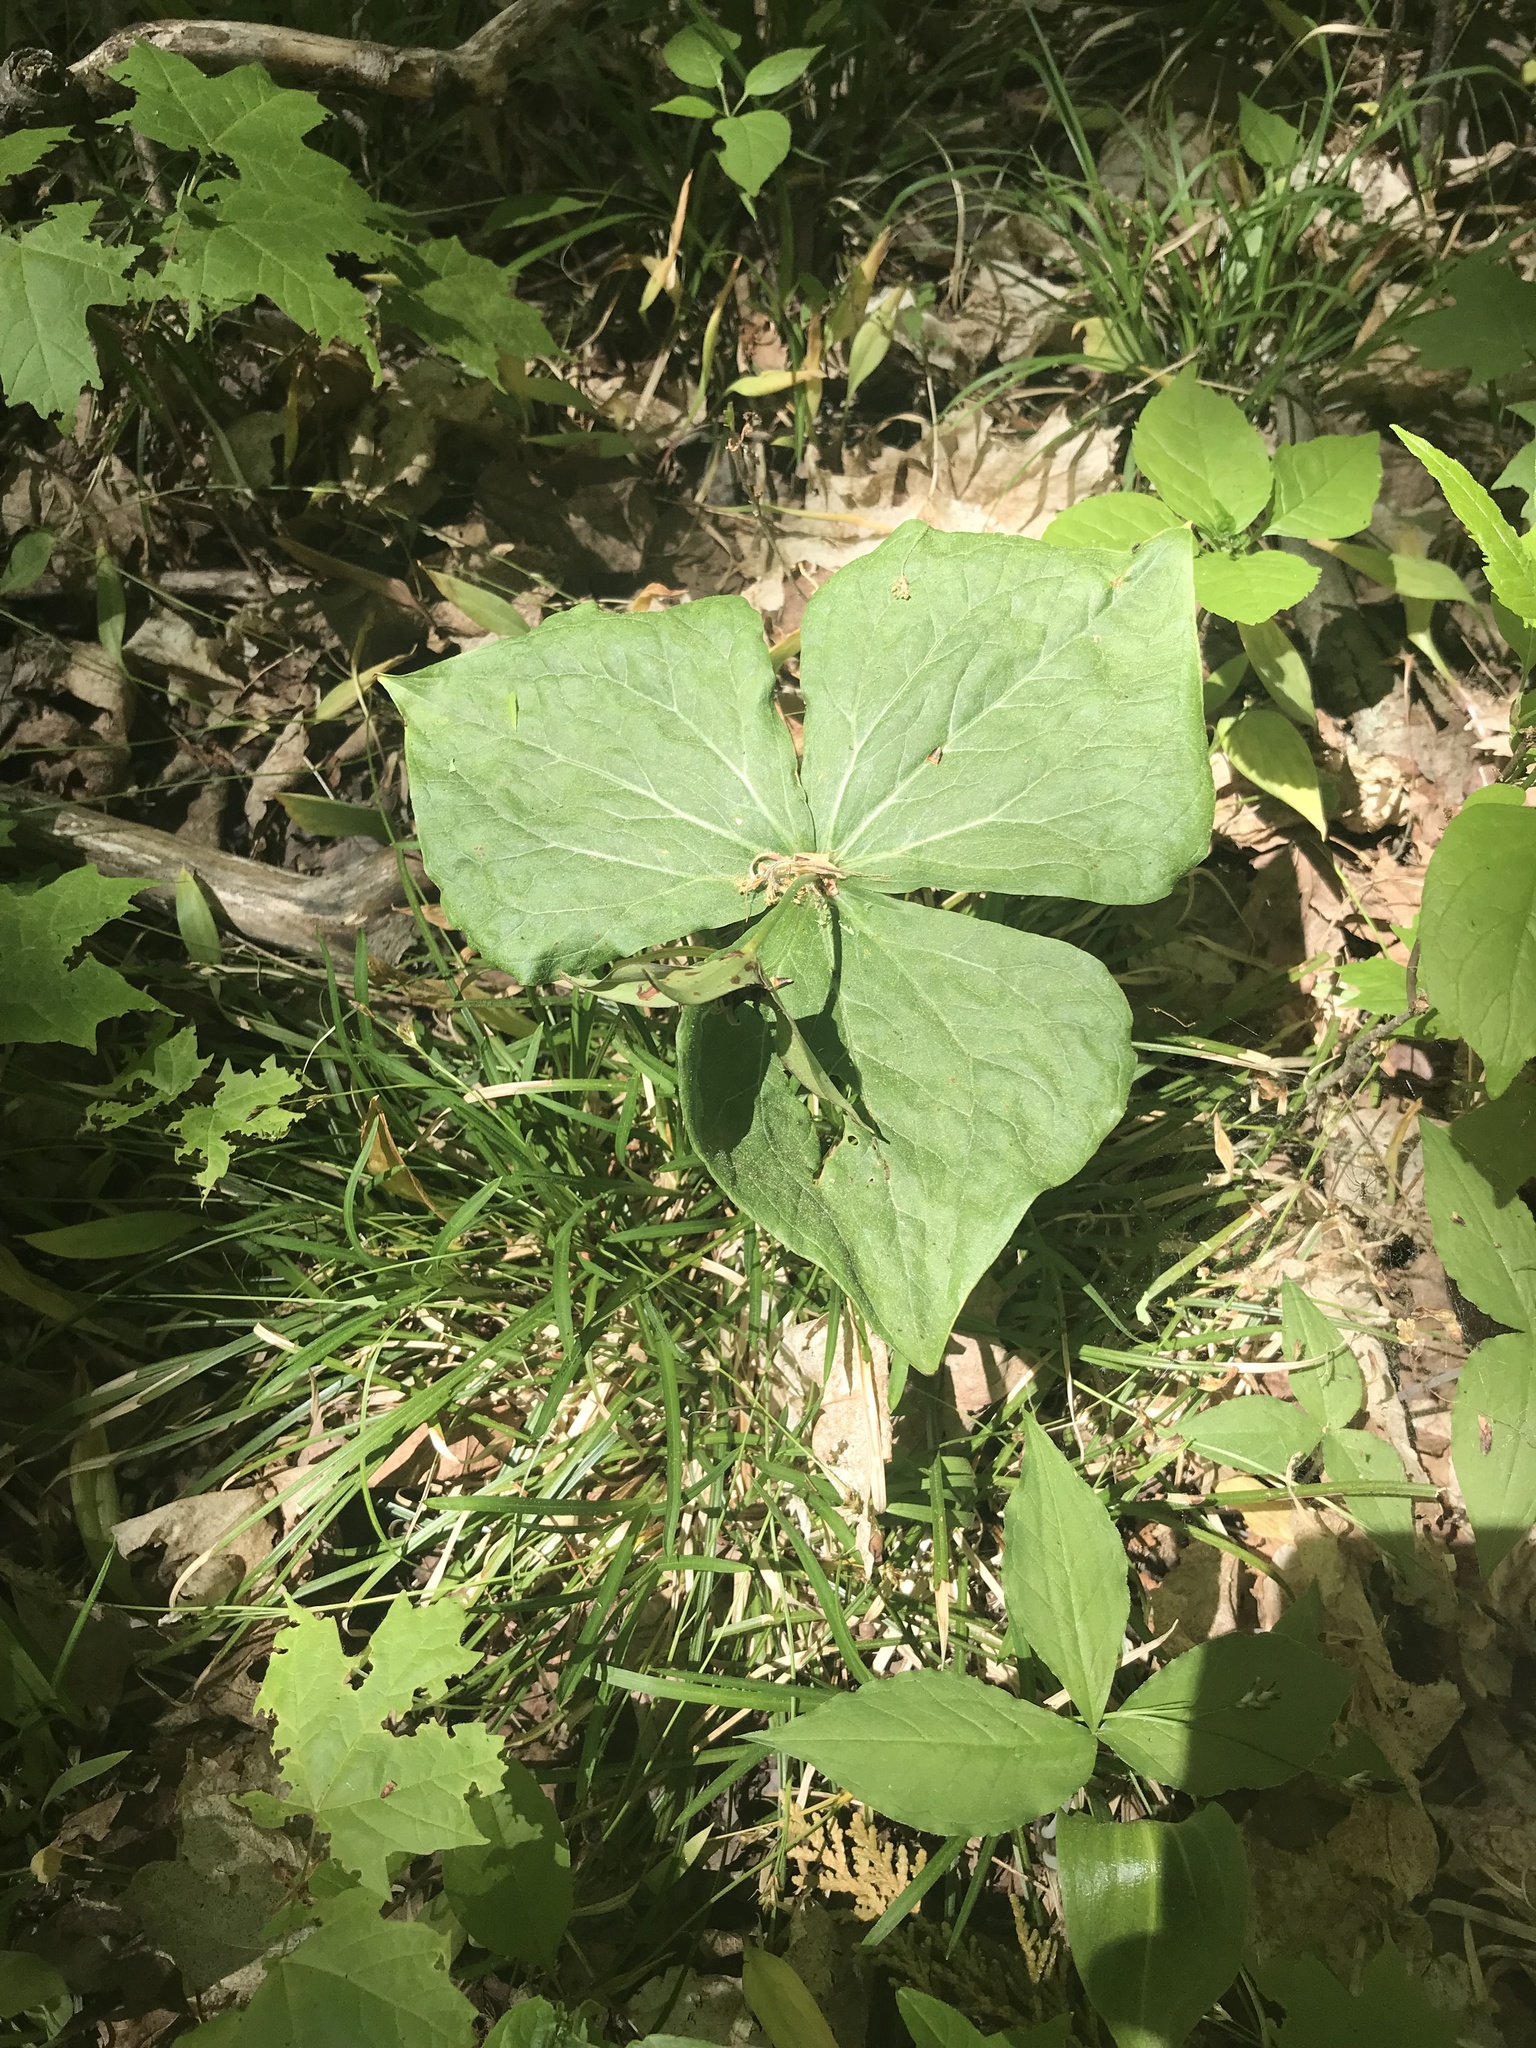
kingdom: Plantae
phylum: Tracheophyta
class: Liliopsida
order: Liliales
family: Melanthiaceae
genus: Trillium
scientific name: Trillium erectum
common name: Purple trillium
